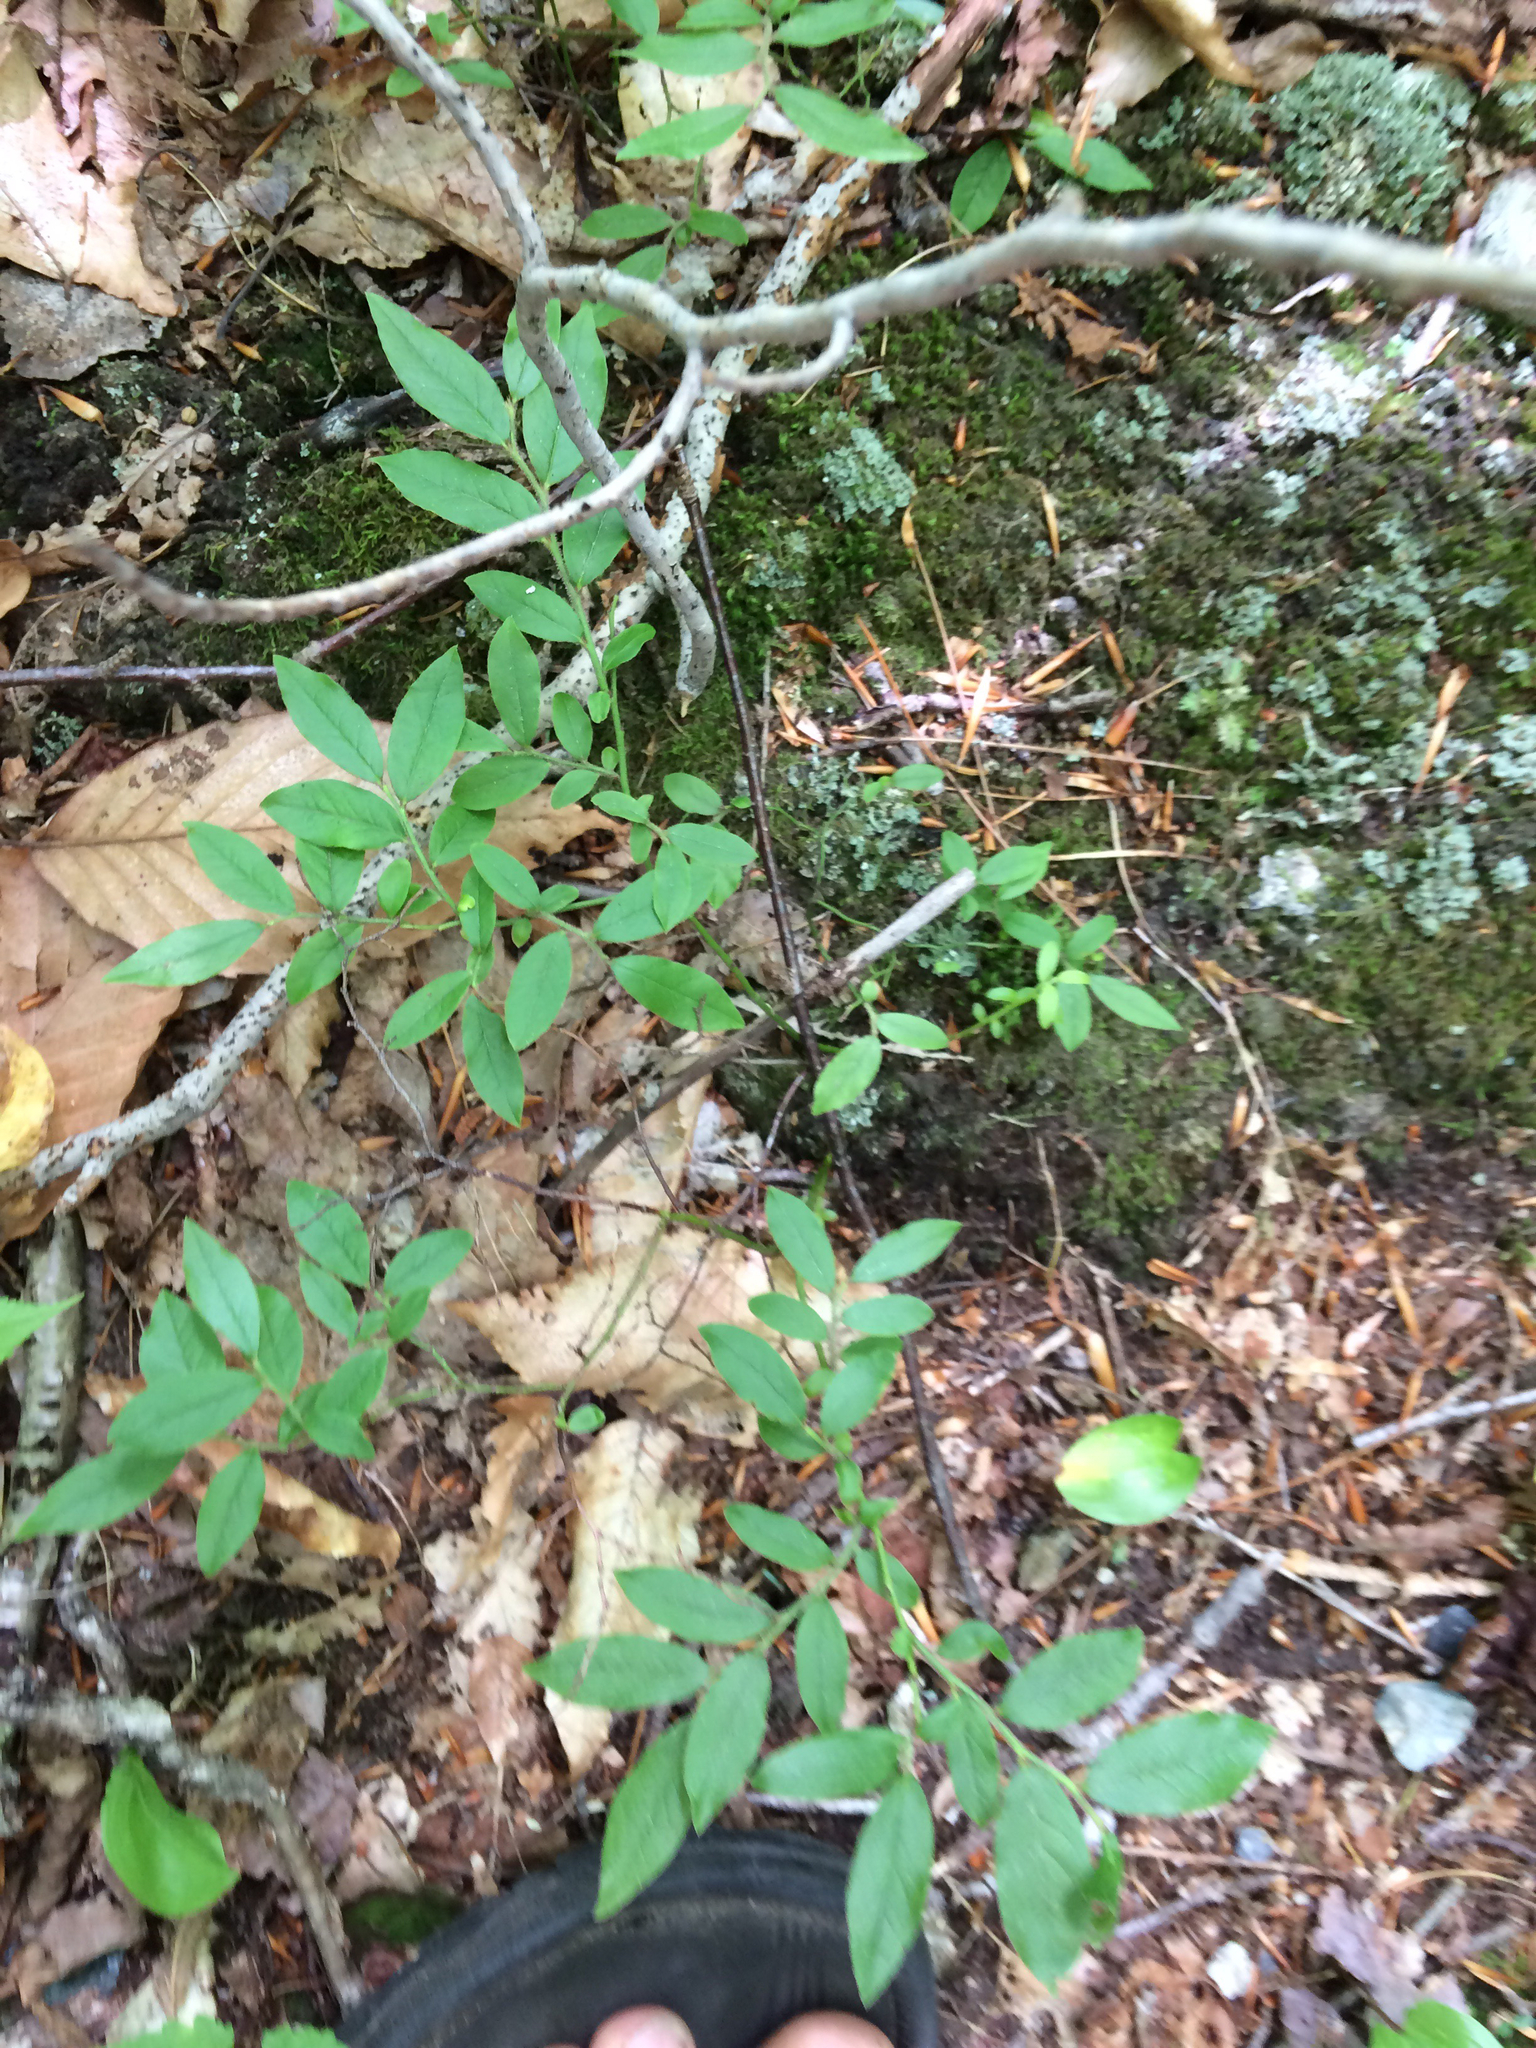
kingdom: Plantae
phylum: Tracheophyta
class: Magnoliopsida
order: Ericales
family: Ericaceae
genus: Vaccinium
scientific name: Vaccinium angustifolium
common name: Early lowbush blueberry
